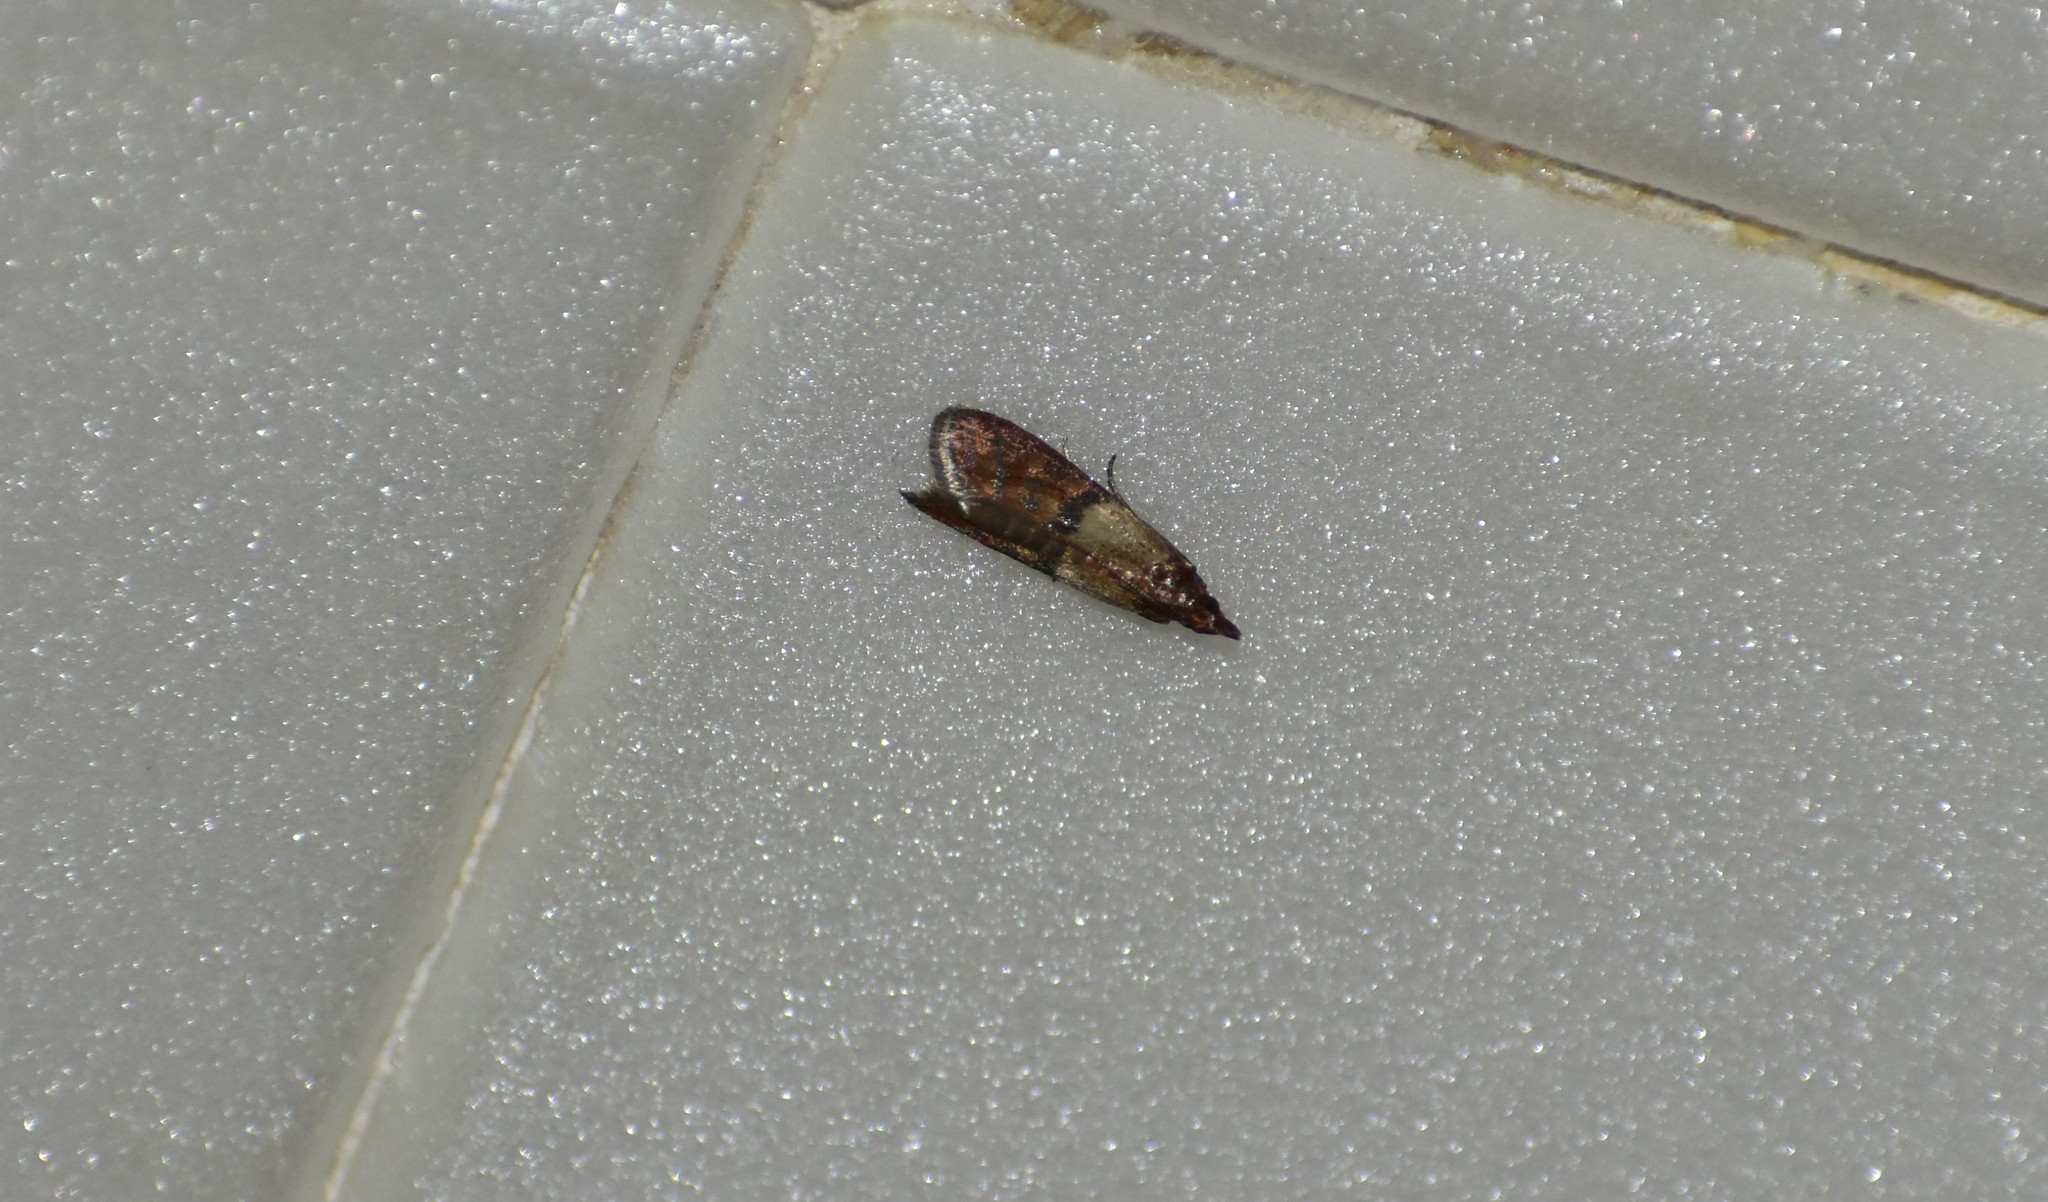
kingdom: Animalia
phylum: Arthropoda
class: Insecta
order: Lepidoptera
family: Pyralidae
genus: Plodia
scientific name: Plodia interpunctella
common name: Indian meal moth
